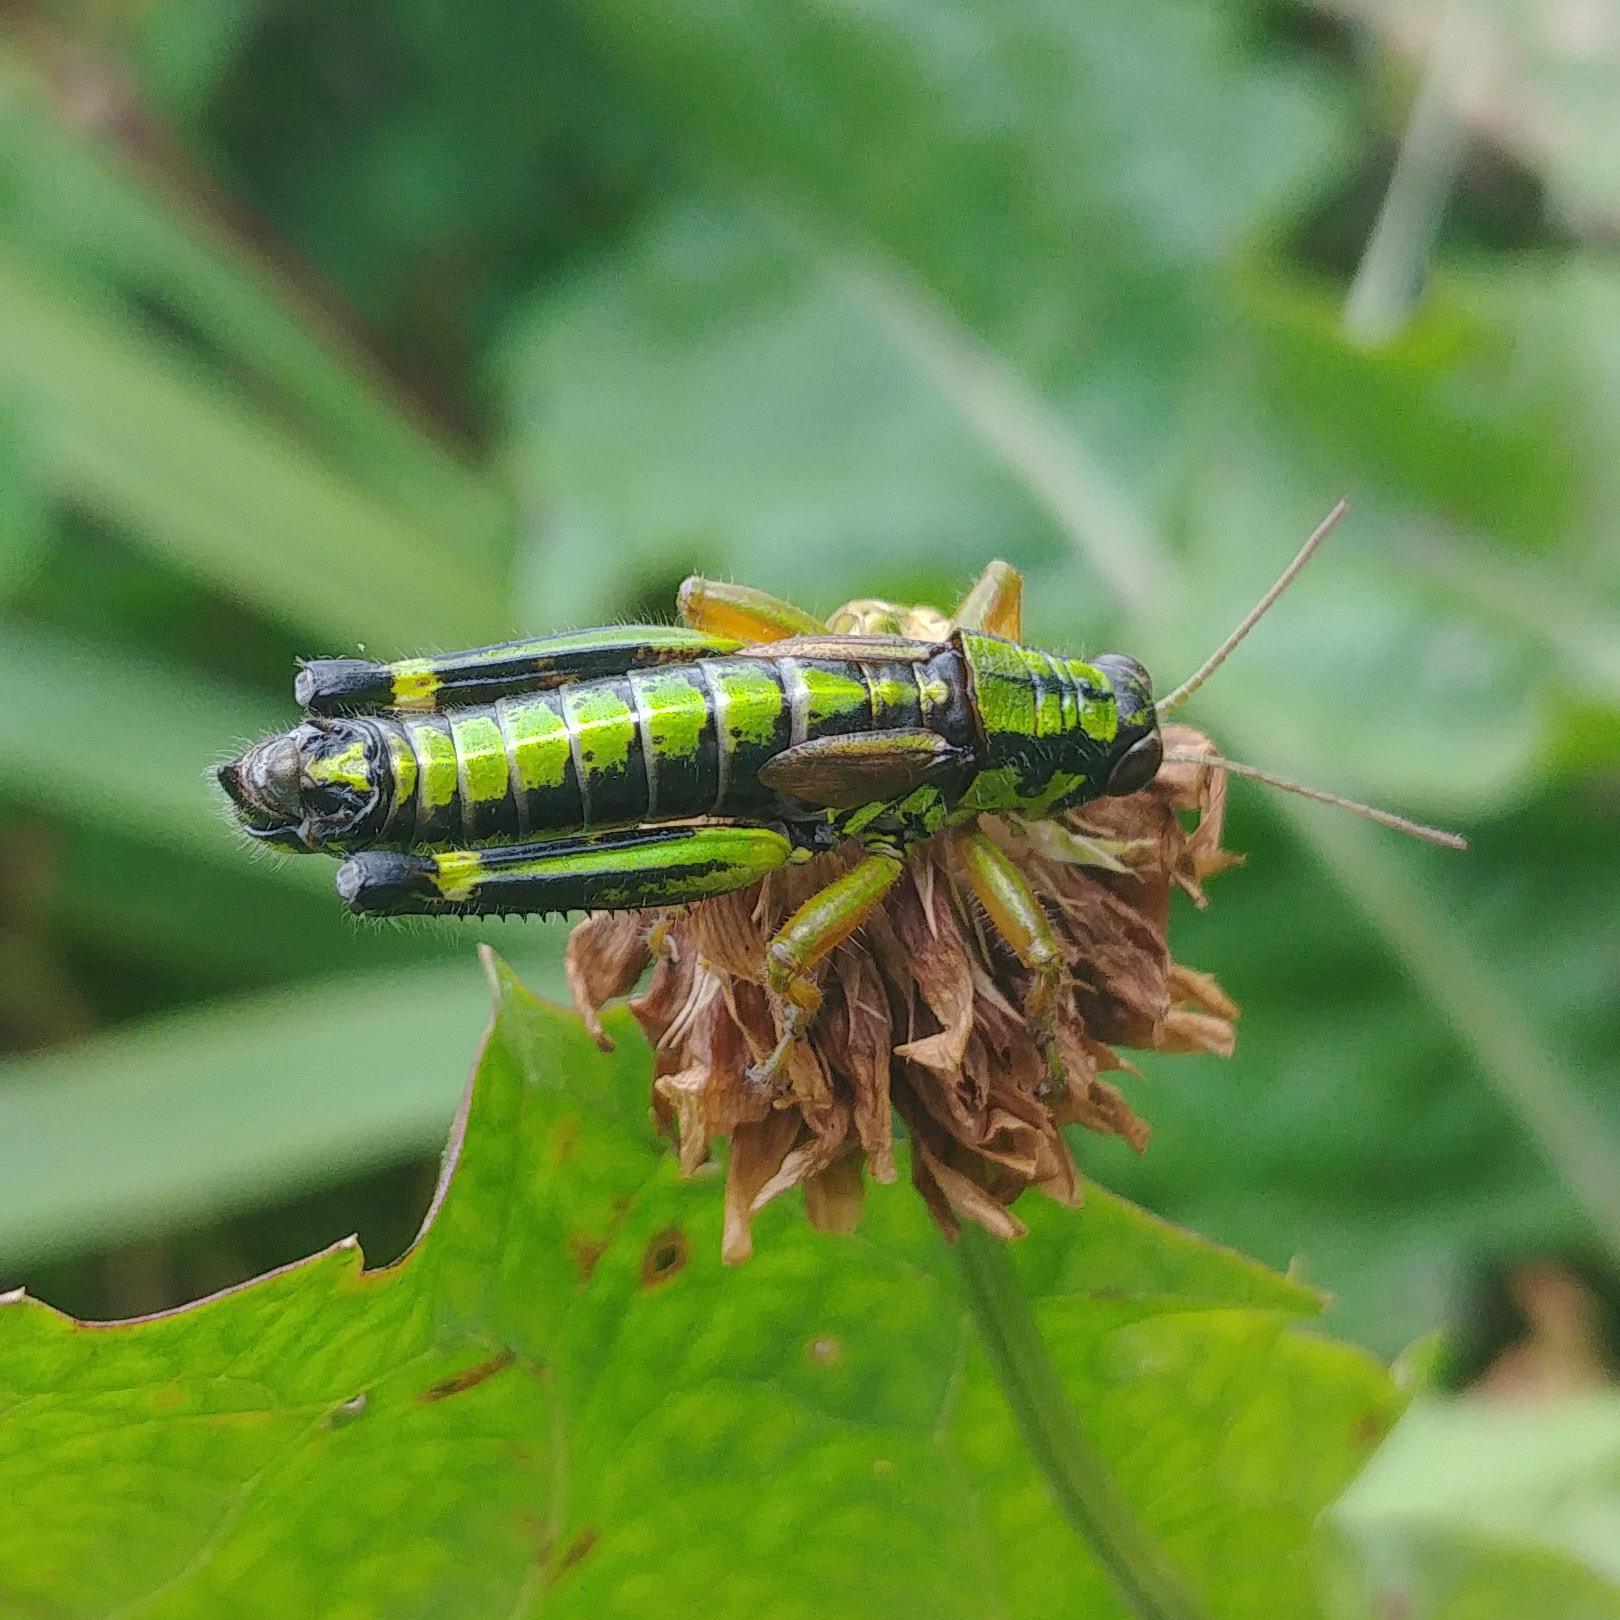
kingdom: Animalia
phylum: Arthropoda
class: Insecta
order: Orthoptera
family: Acrididae
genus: Miramella
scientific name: Miramella alpina
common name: Green mountain grasshopper
